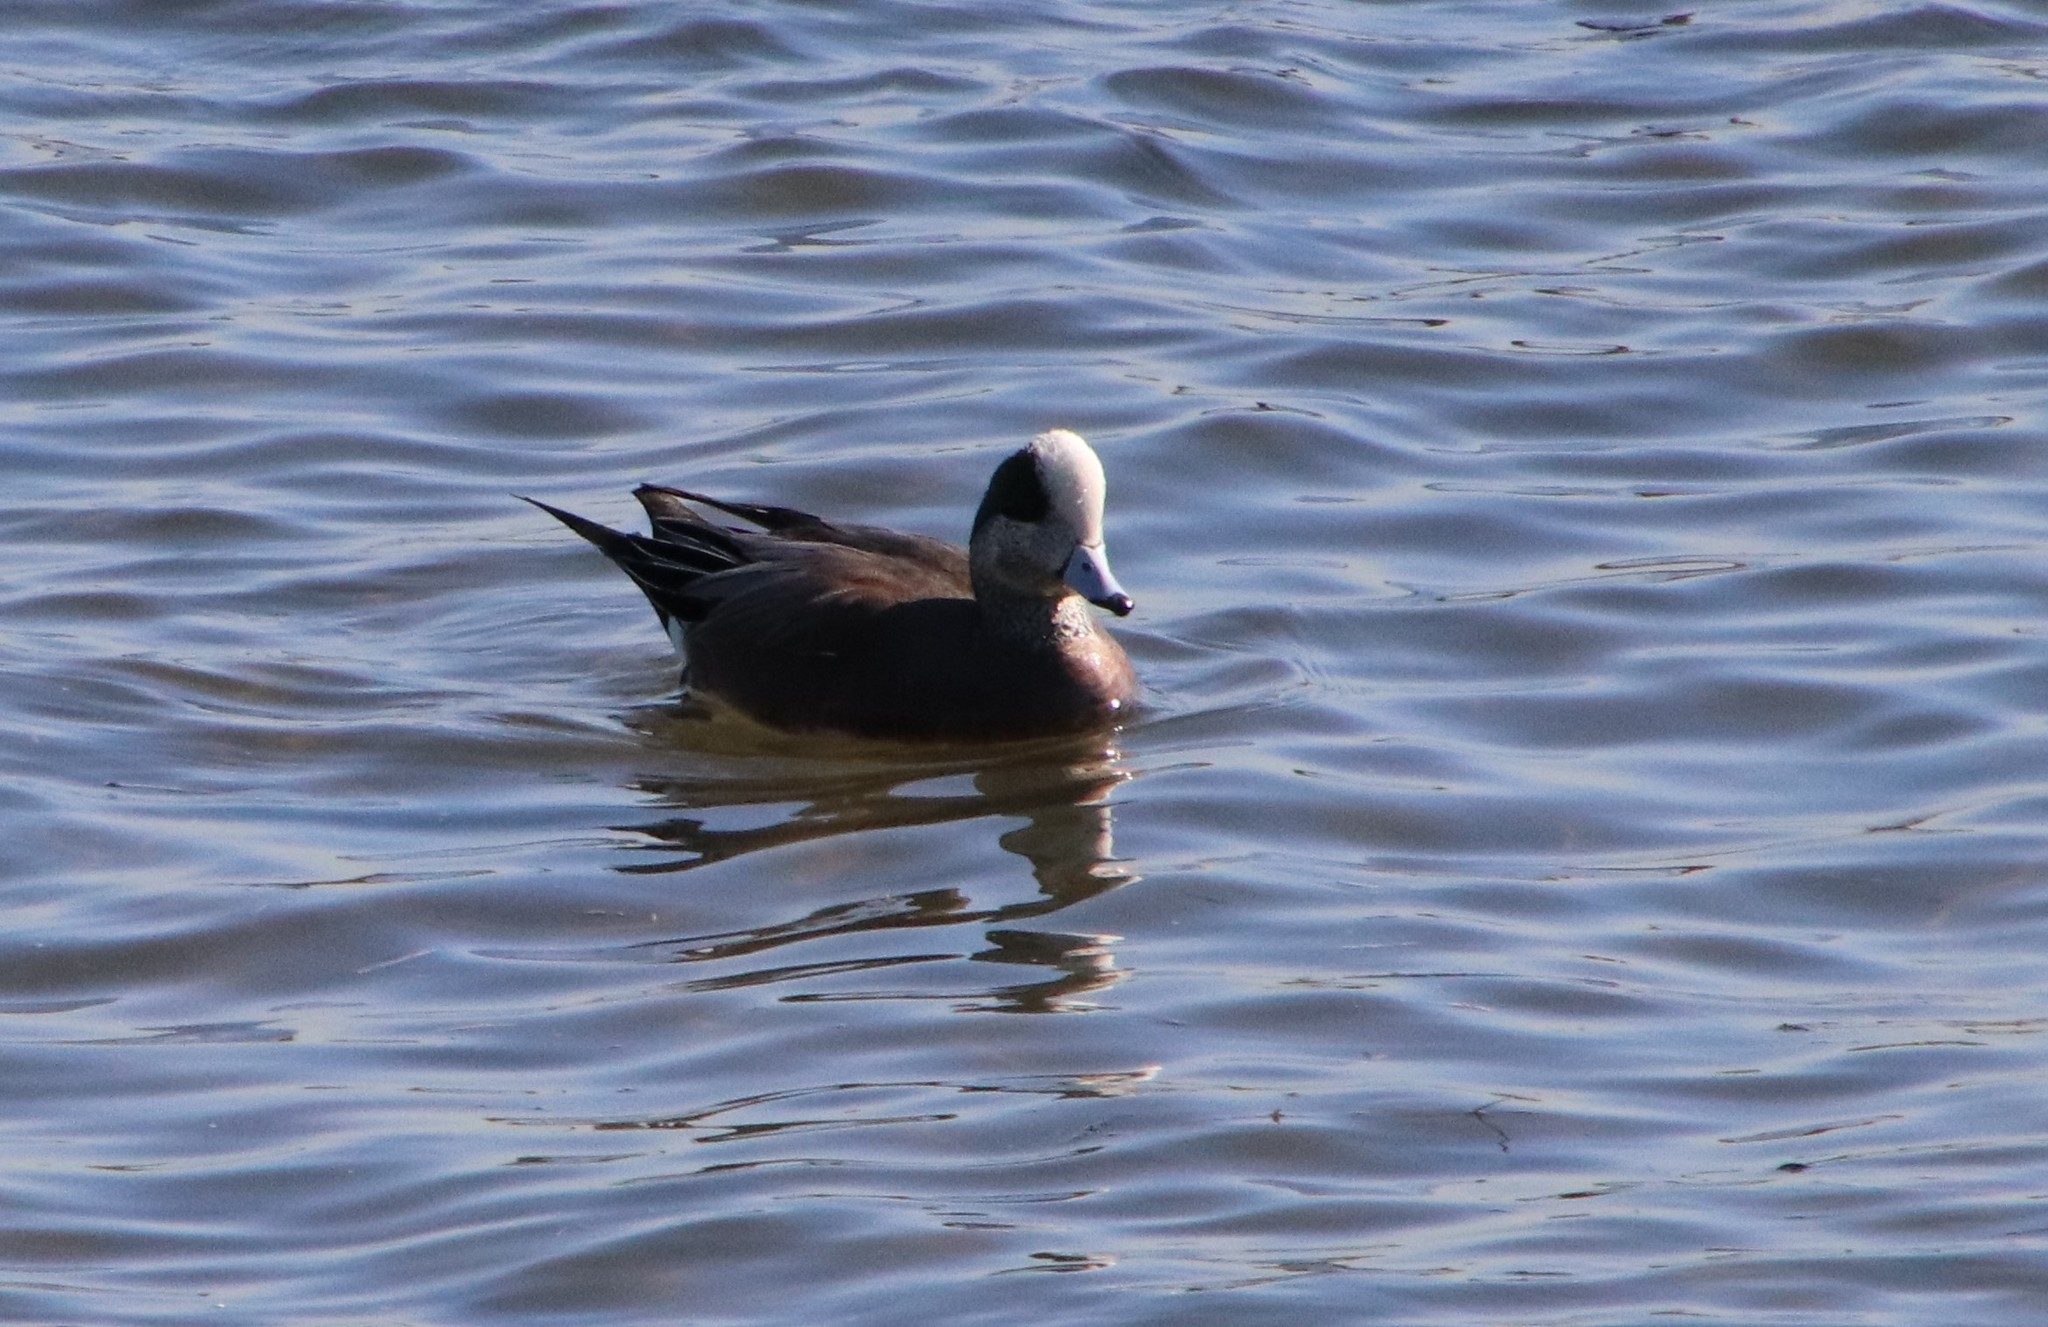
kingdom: Animalia
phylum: Chordata
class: Aves
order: Anseriformes
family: Anatidae
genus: Mareca
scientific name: Mareca americana
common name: American wigeon
